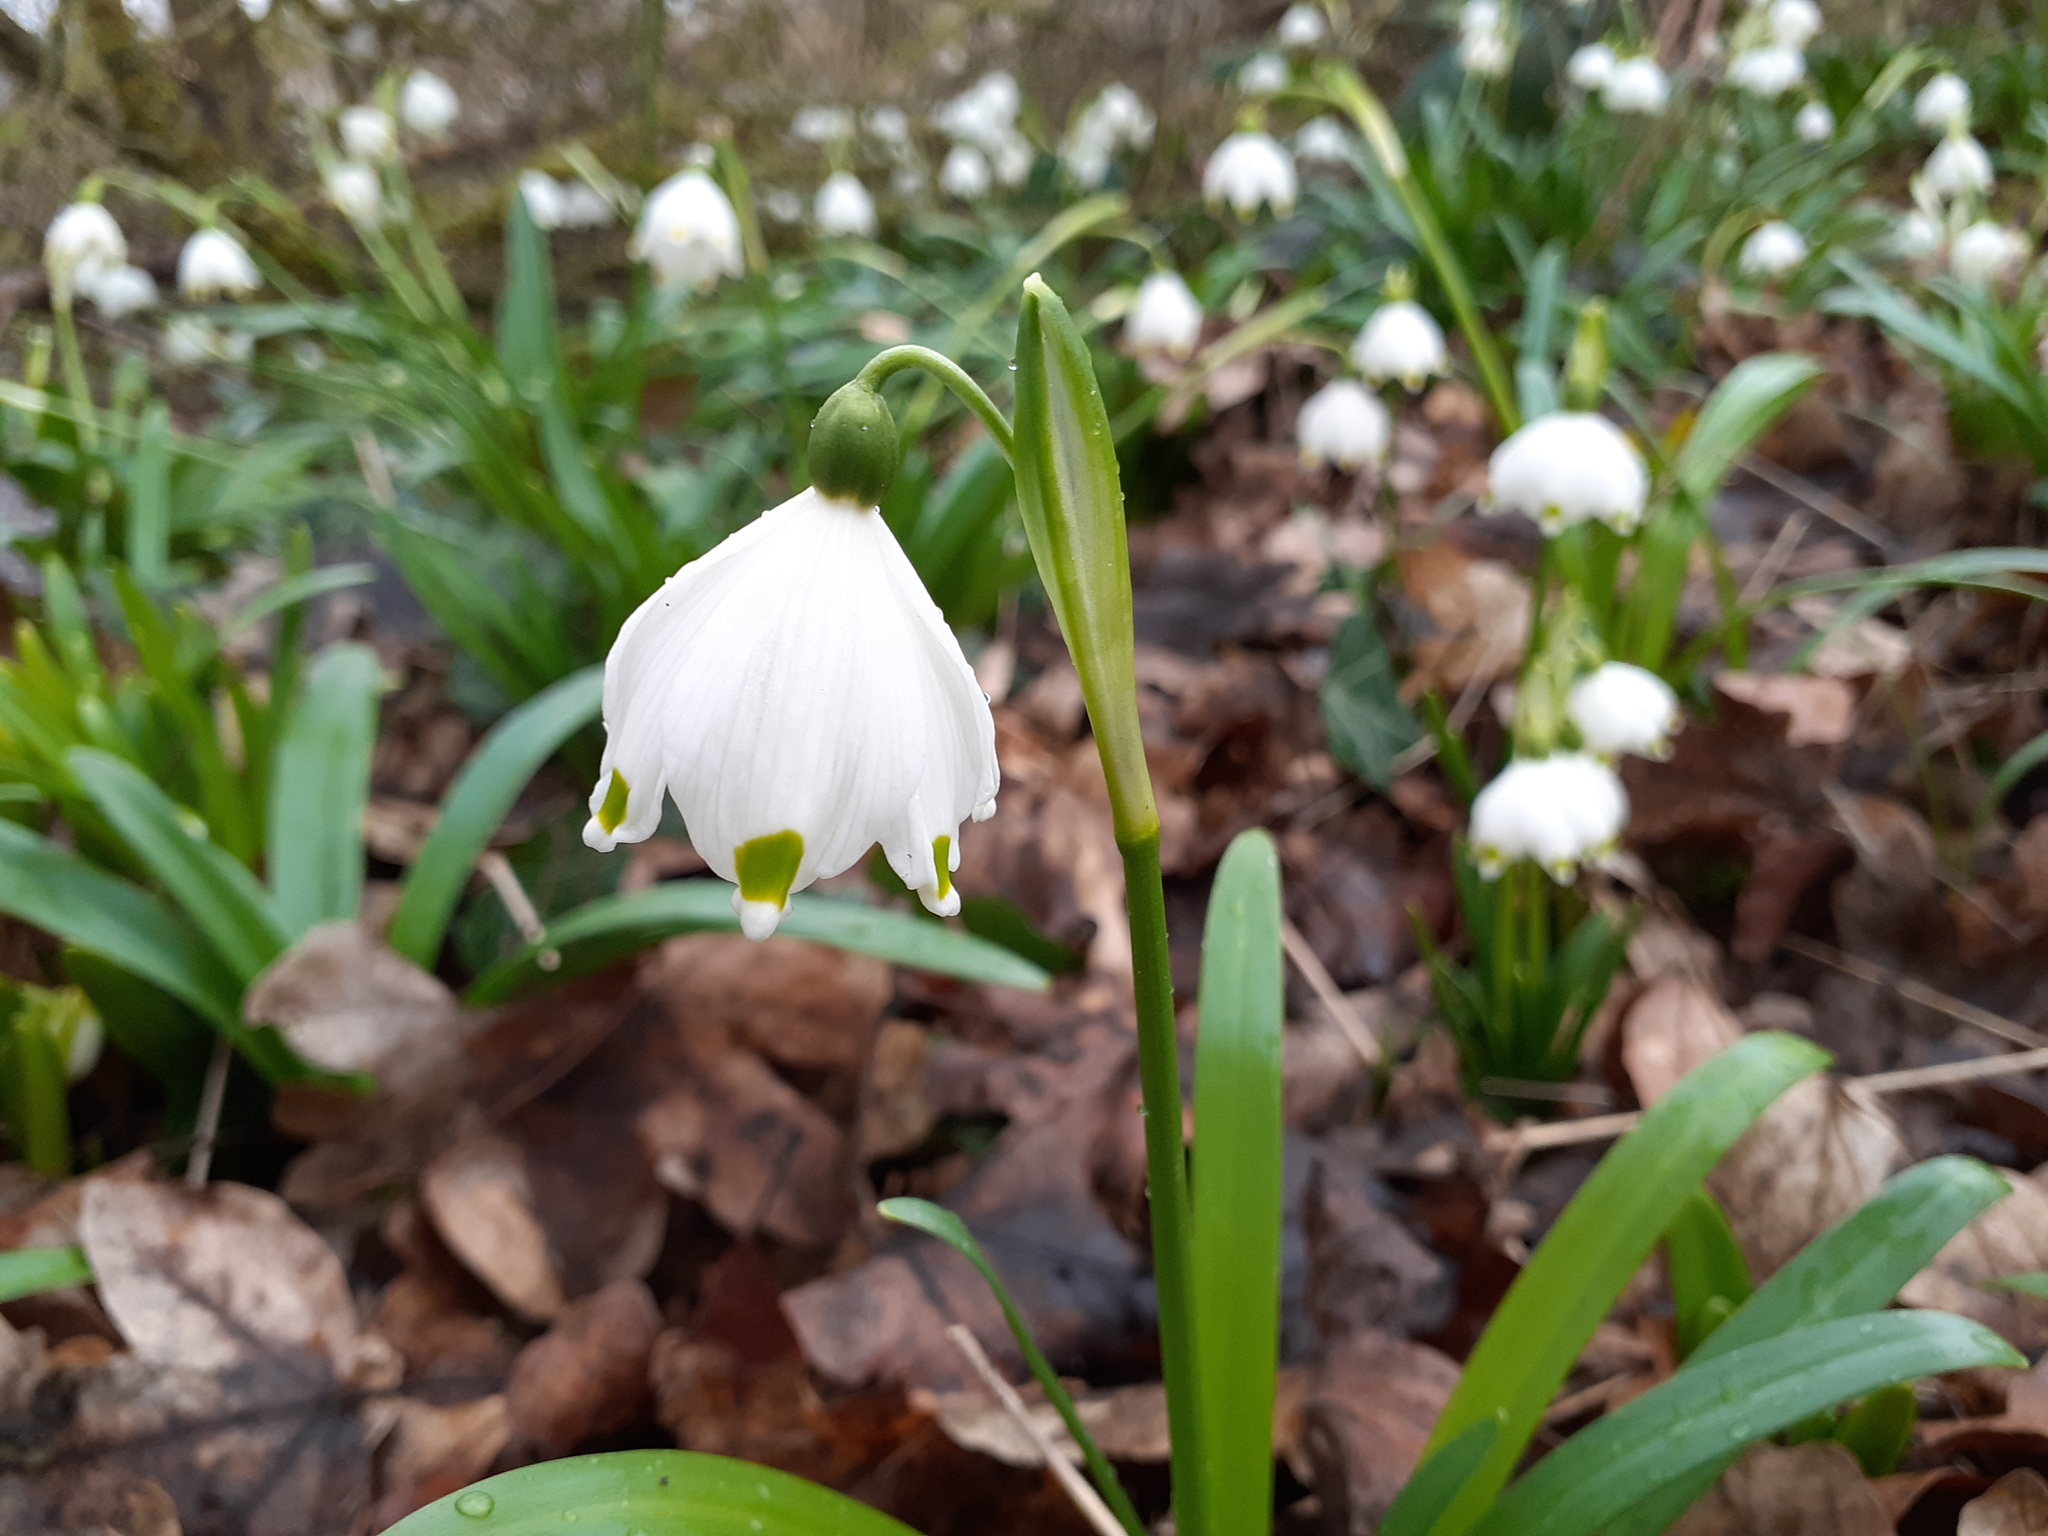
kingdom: Plantae
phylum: Tracheophyta
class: Liliopsida
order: Asparagales
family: Amaryllidaceae
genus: Leucojum
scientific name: Leucojum vernum
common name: Spring snowflake
